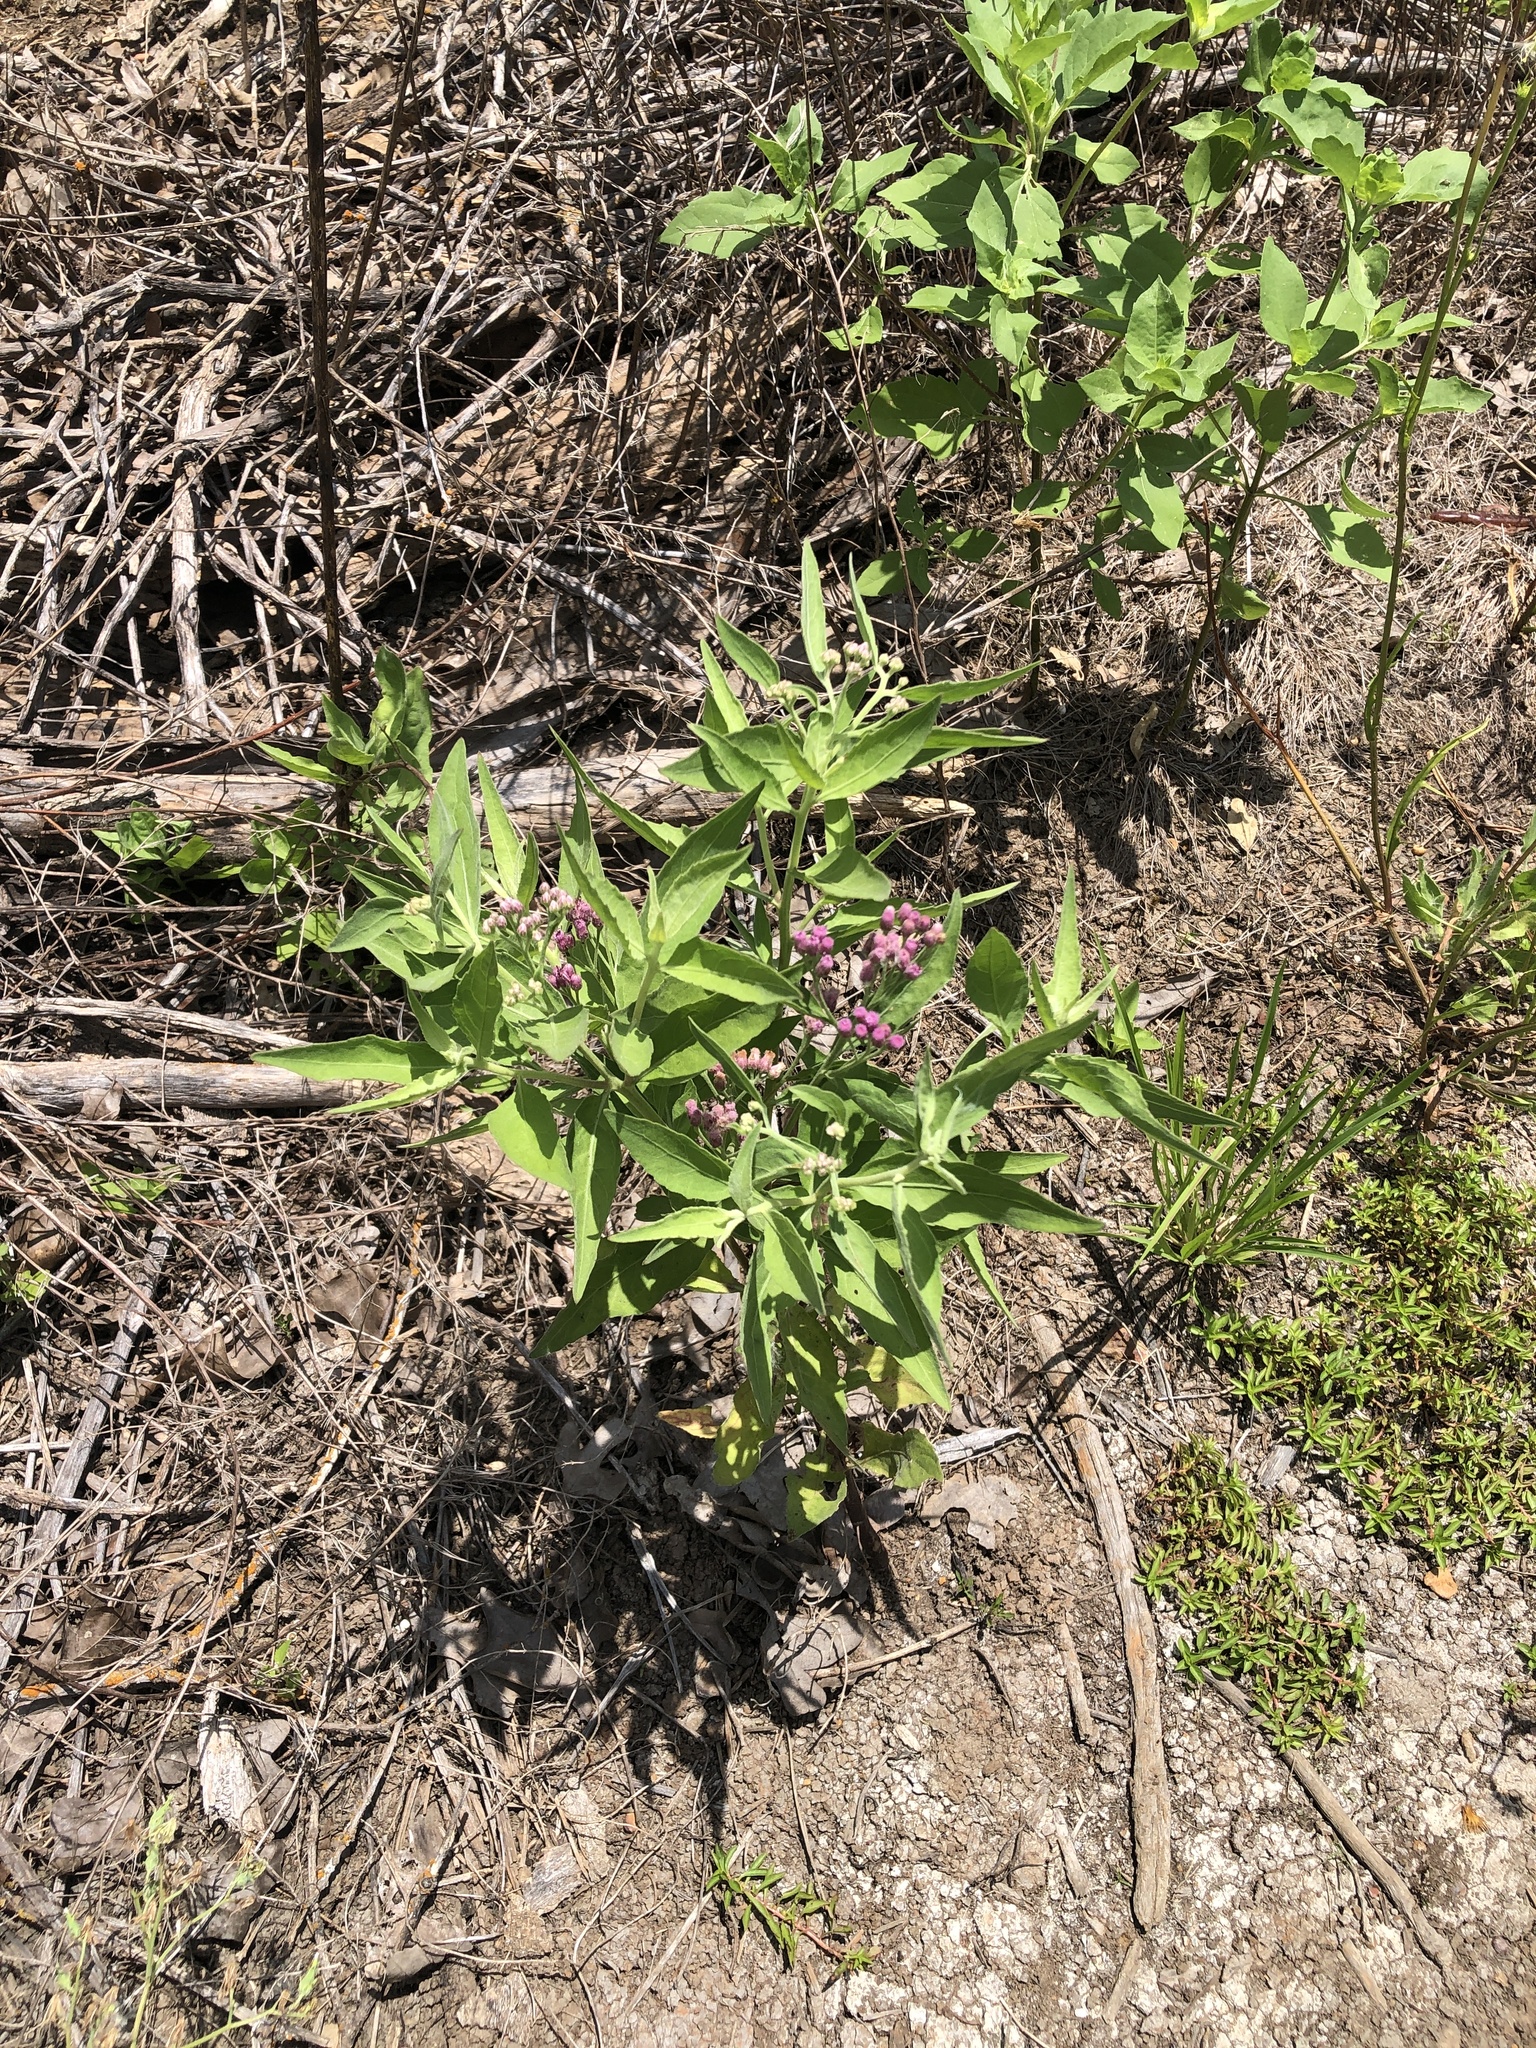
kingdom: Plantae
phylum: Tracheophyta
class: Magnoliopsida
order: Asterales
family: Asteraceae
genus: Pluchea
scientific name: Pluchea odorata
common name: Saltmarsh fleabane
